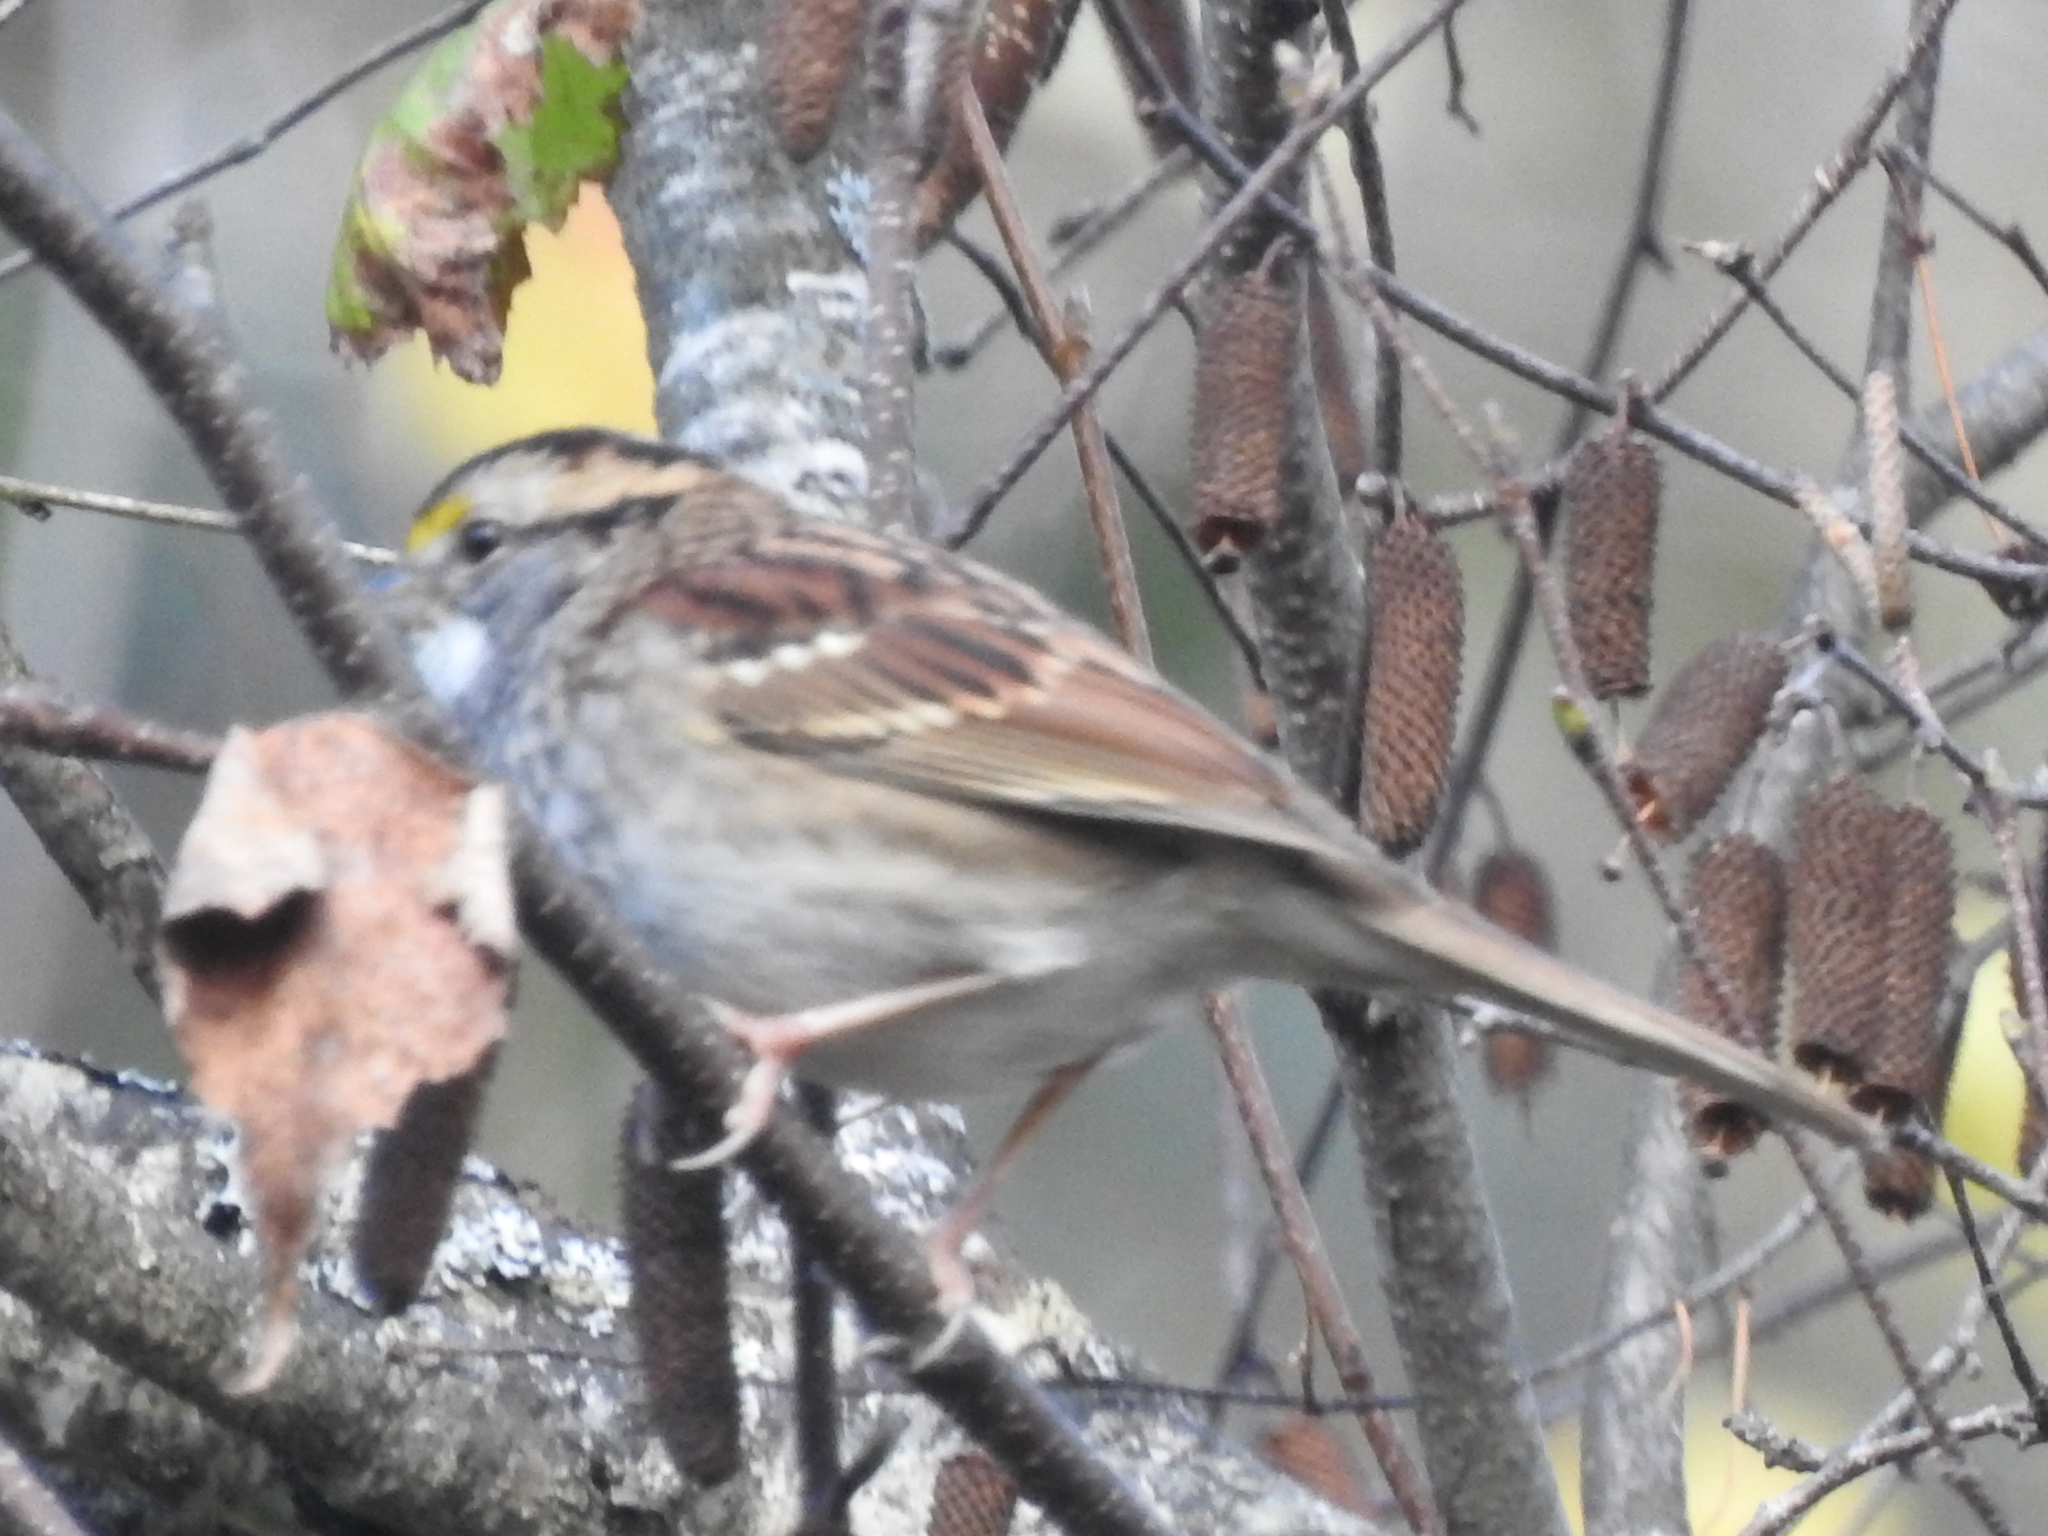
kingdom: Animalia
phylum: Chordata
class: Aves
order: Passeriformes
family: Passerellidae
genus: Zonotrichia
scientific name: Zonotrichia albicollis
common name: White-throated sparrow
